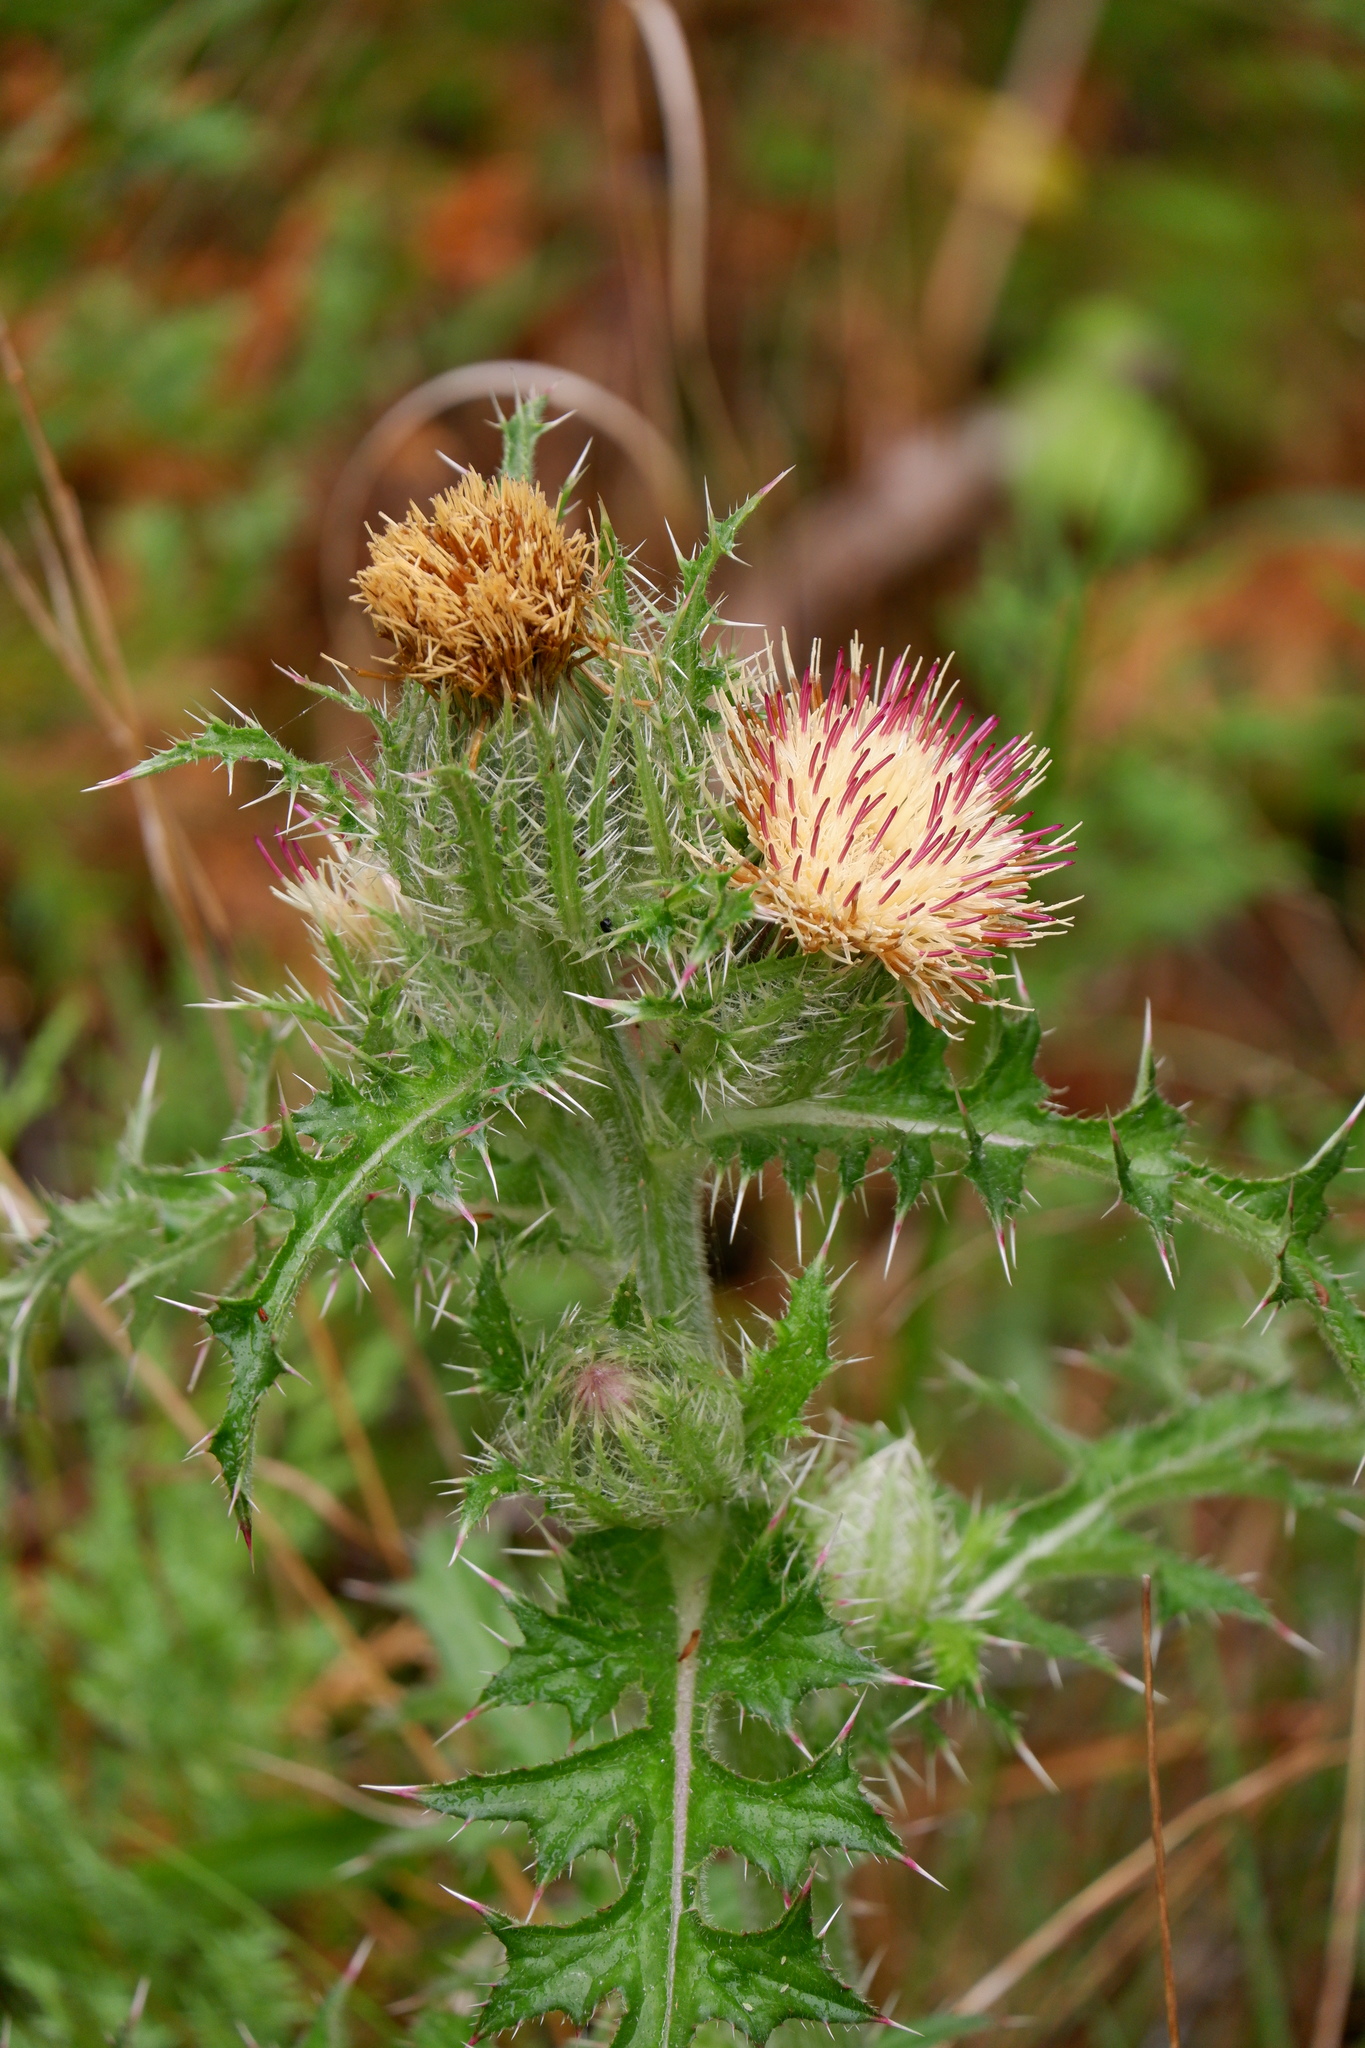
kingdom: Plantae
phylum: Tracheophyta
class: Magnoliopsida
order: Asterales
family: Asteraceae
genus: Cirsium
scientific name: Cirsium horridulum
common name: Bristly thistle
